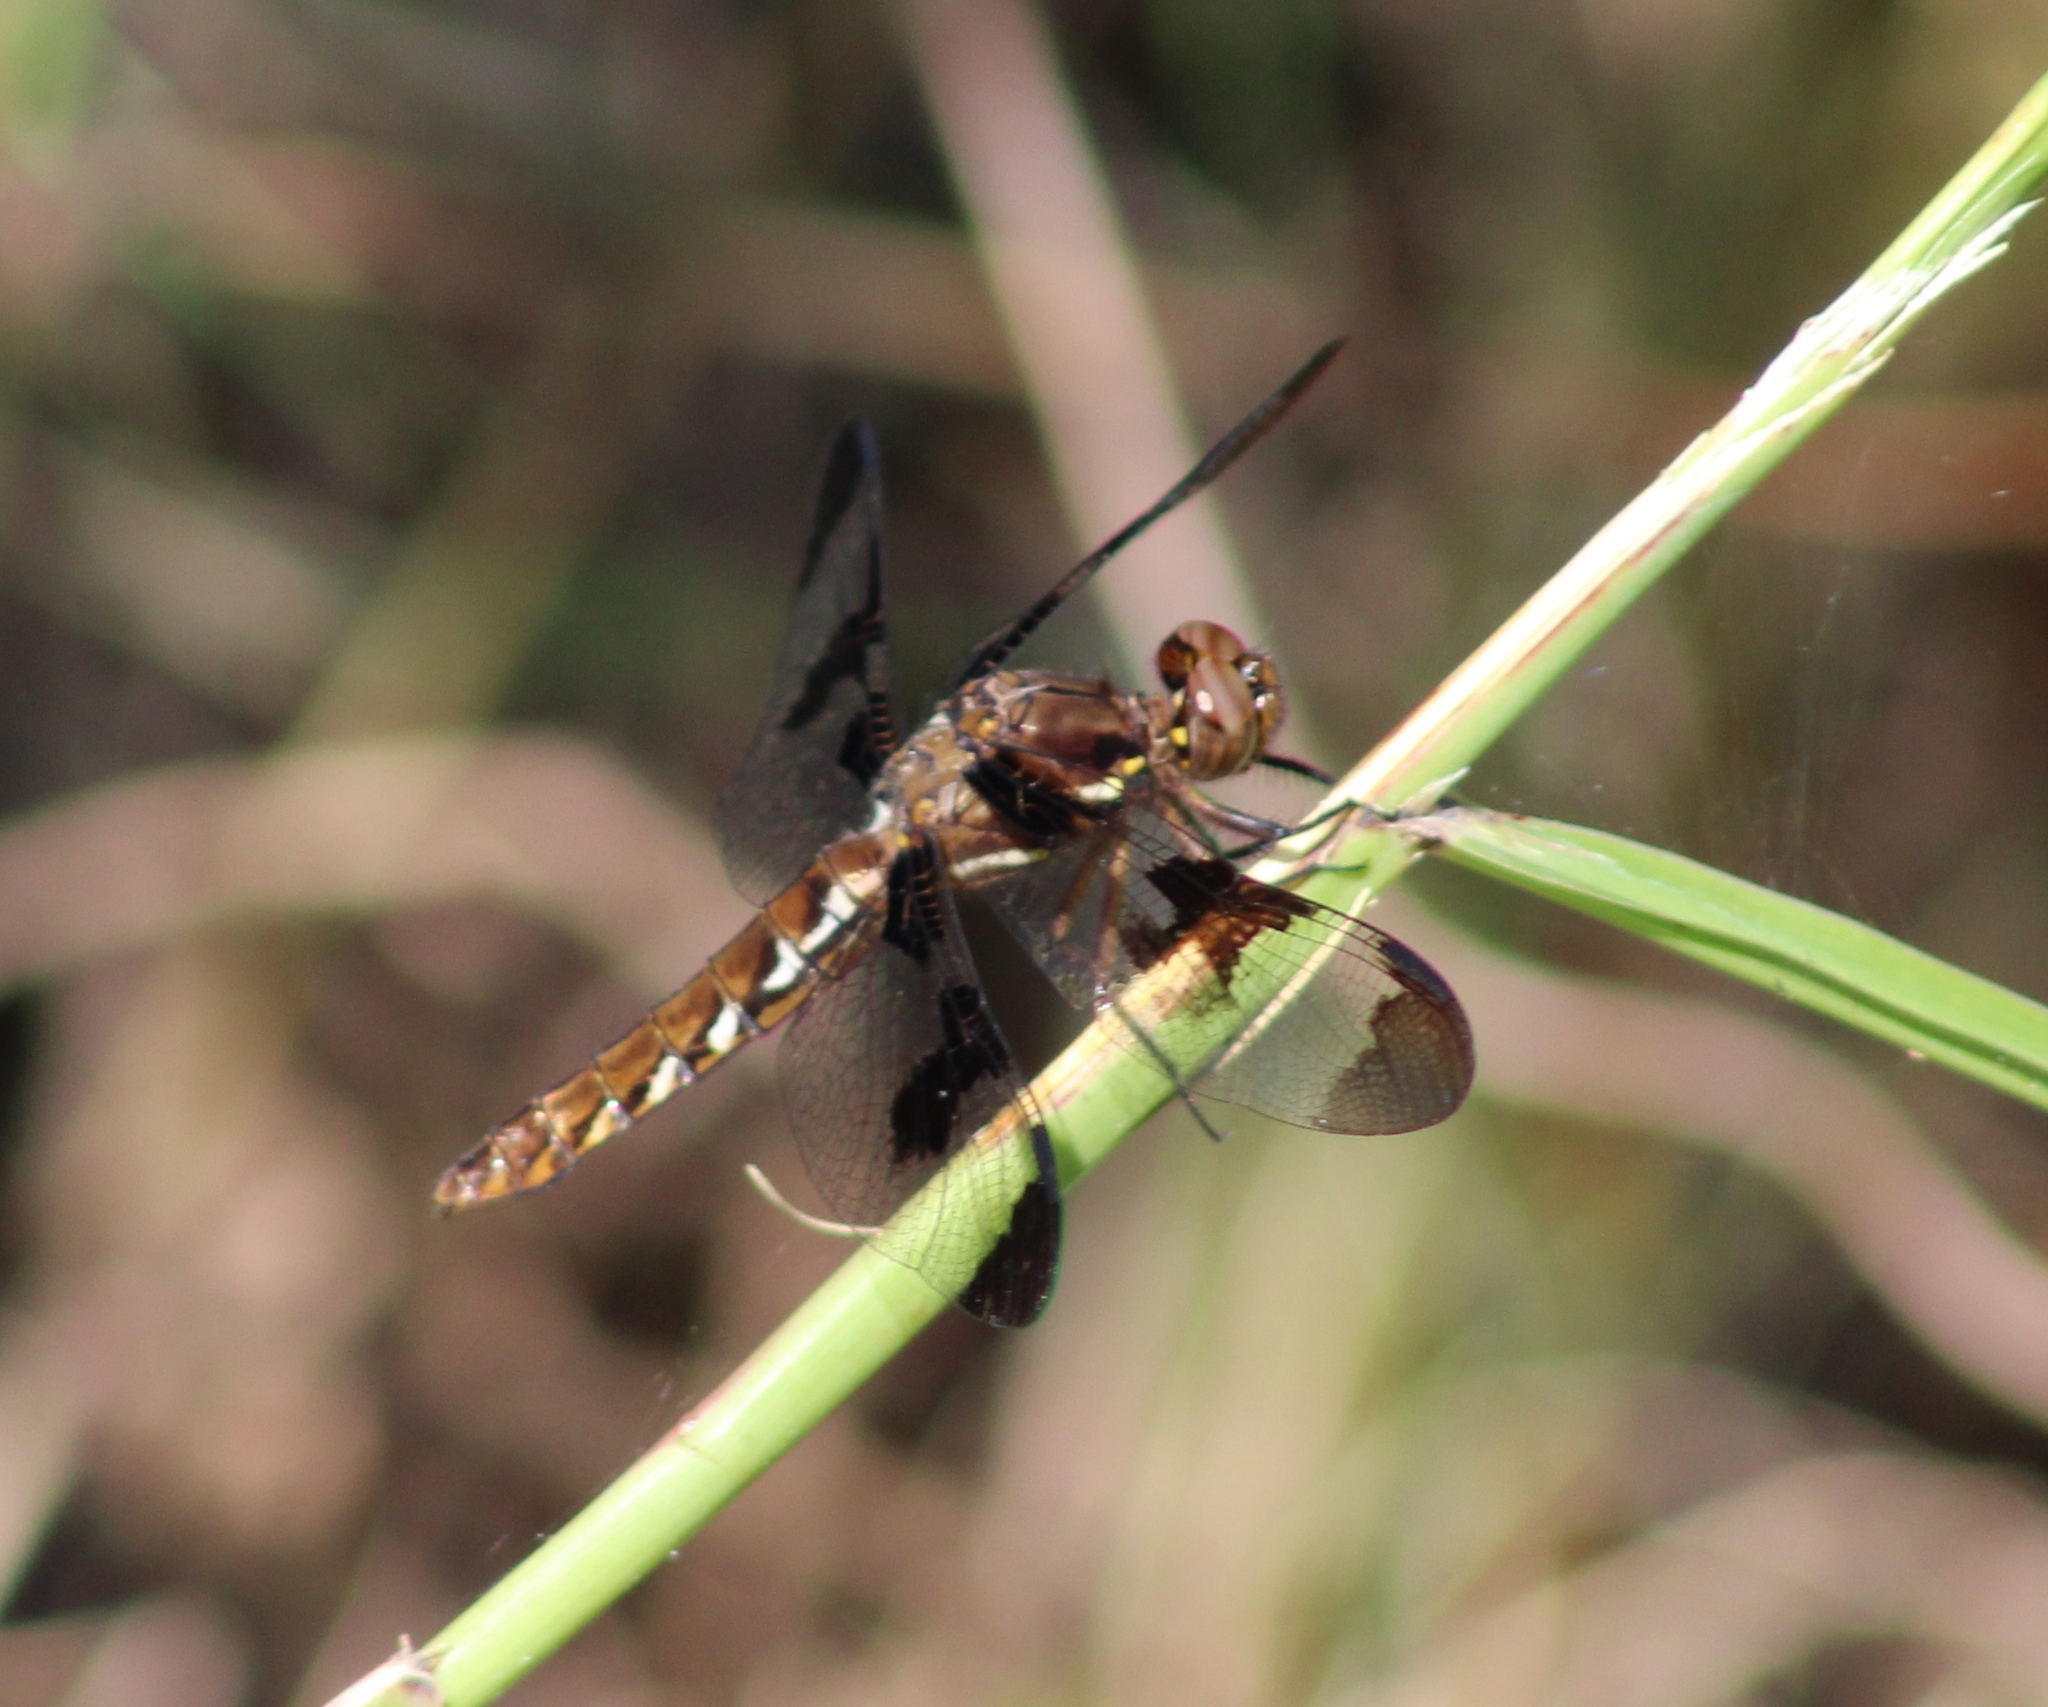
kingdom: Animalia
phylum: Arthropoda
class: Insecta
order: Odonata
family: Libellulidae
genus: Plathemis
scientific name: Plathemis lydia
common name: Common whitetail
